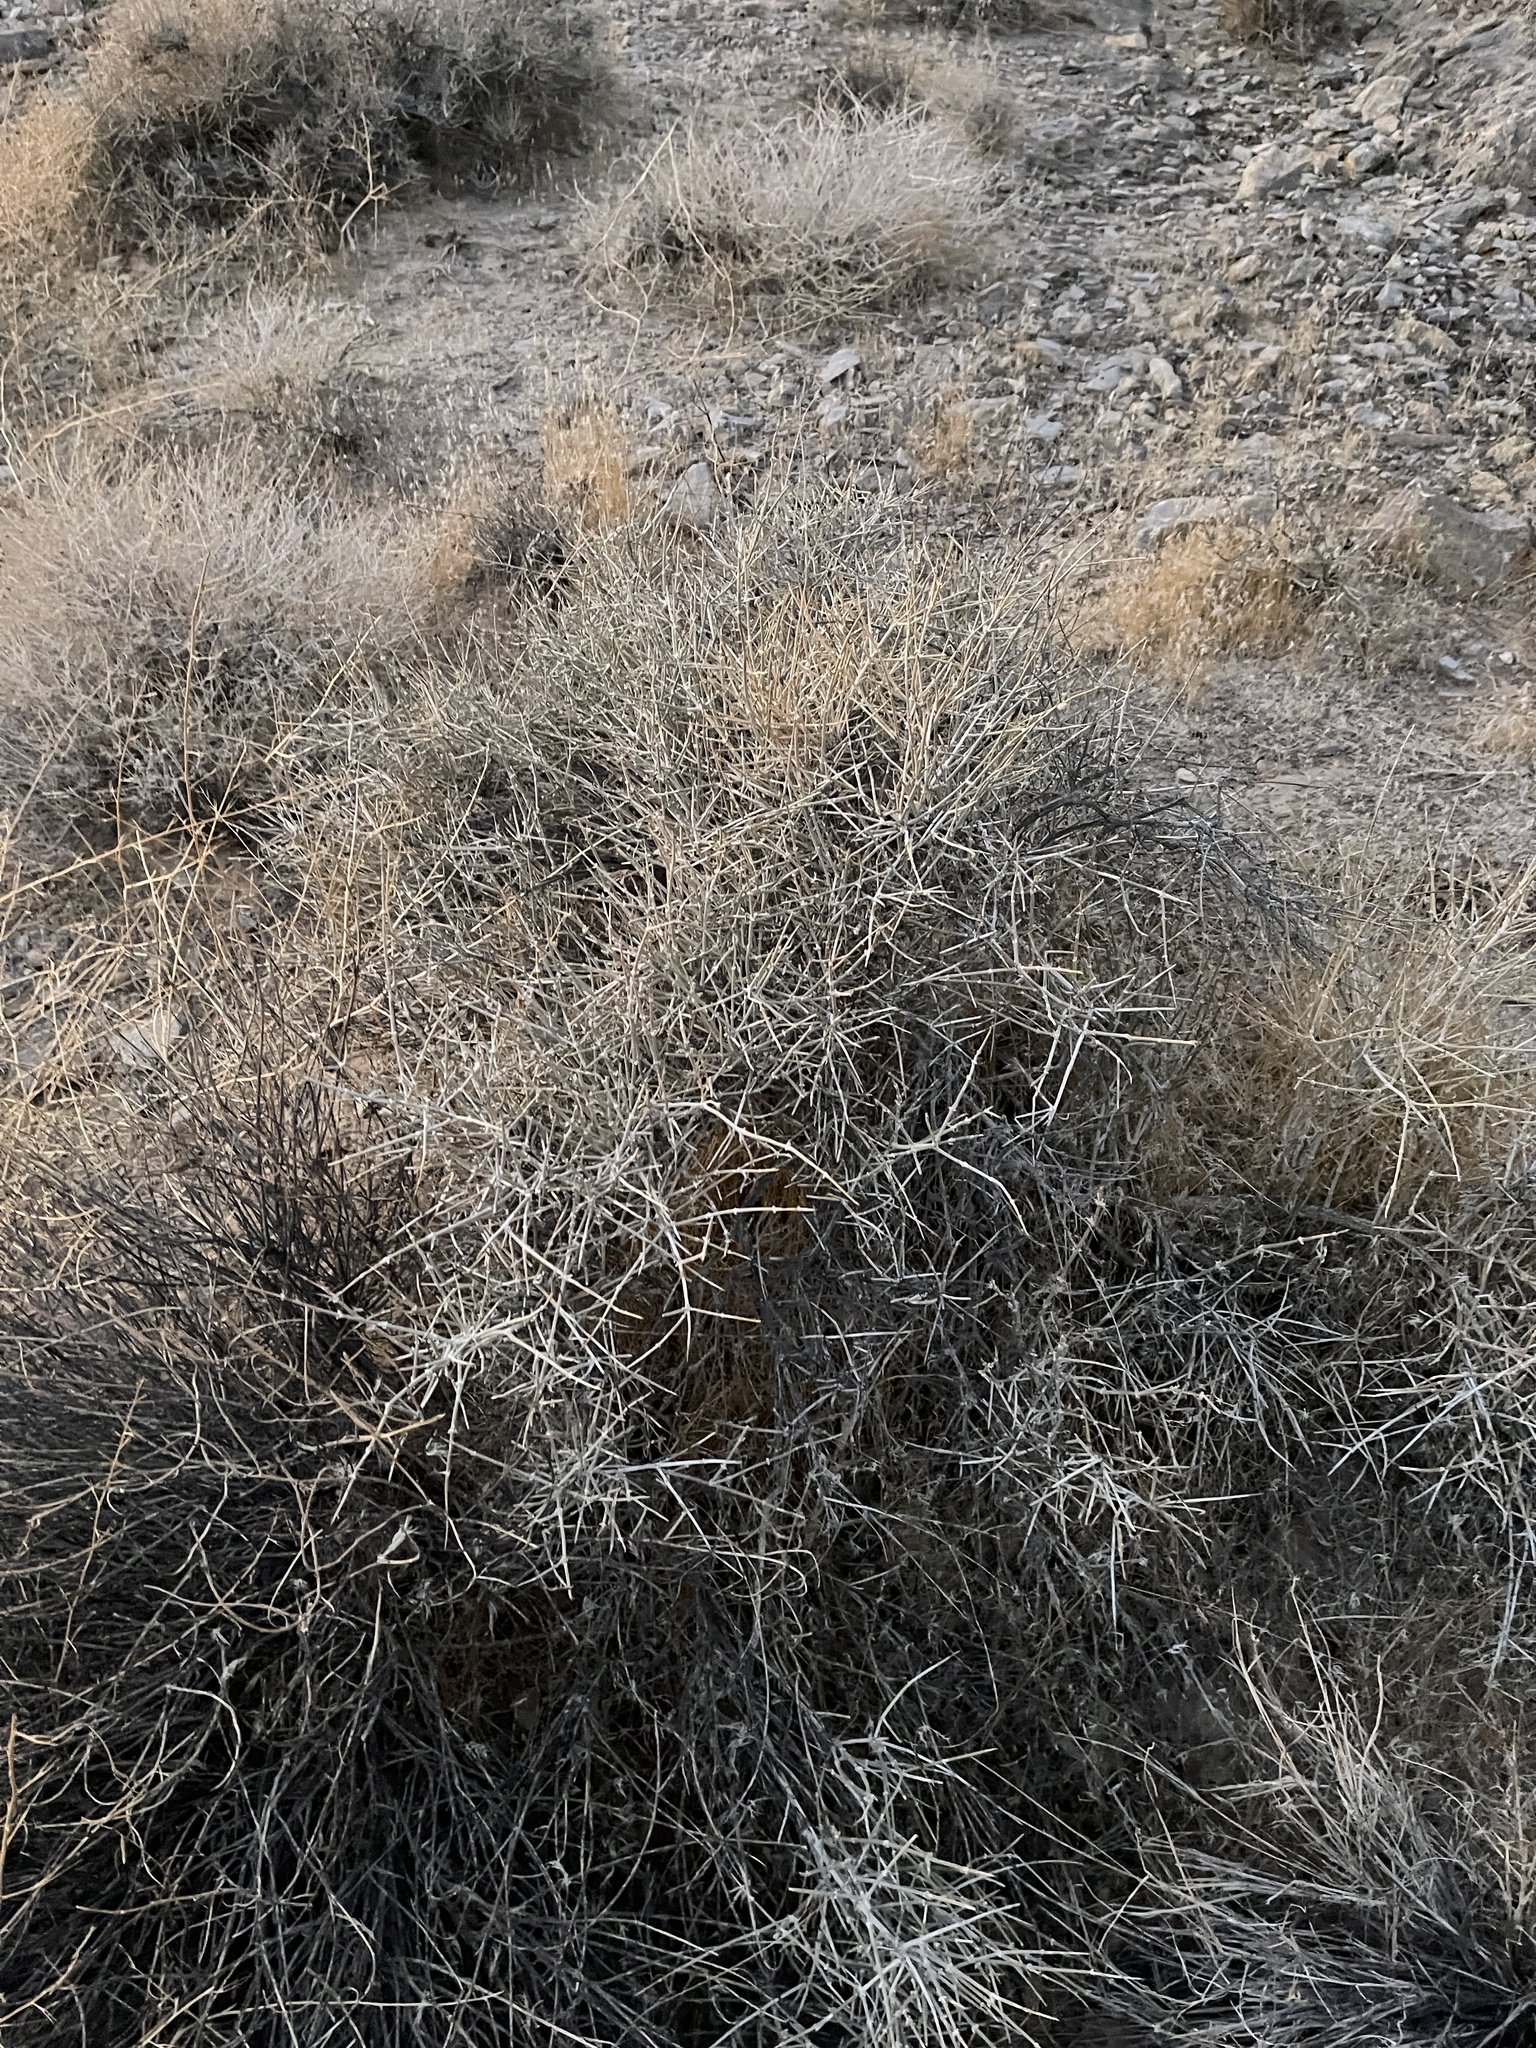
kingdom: Plantae
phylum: Tracheophyta
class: Gnetopsida
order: Ephedrales
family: Ephedraceae
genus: Ephedra
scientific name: Ephedra nevadensis
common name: Gray ephedra
